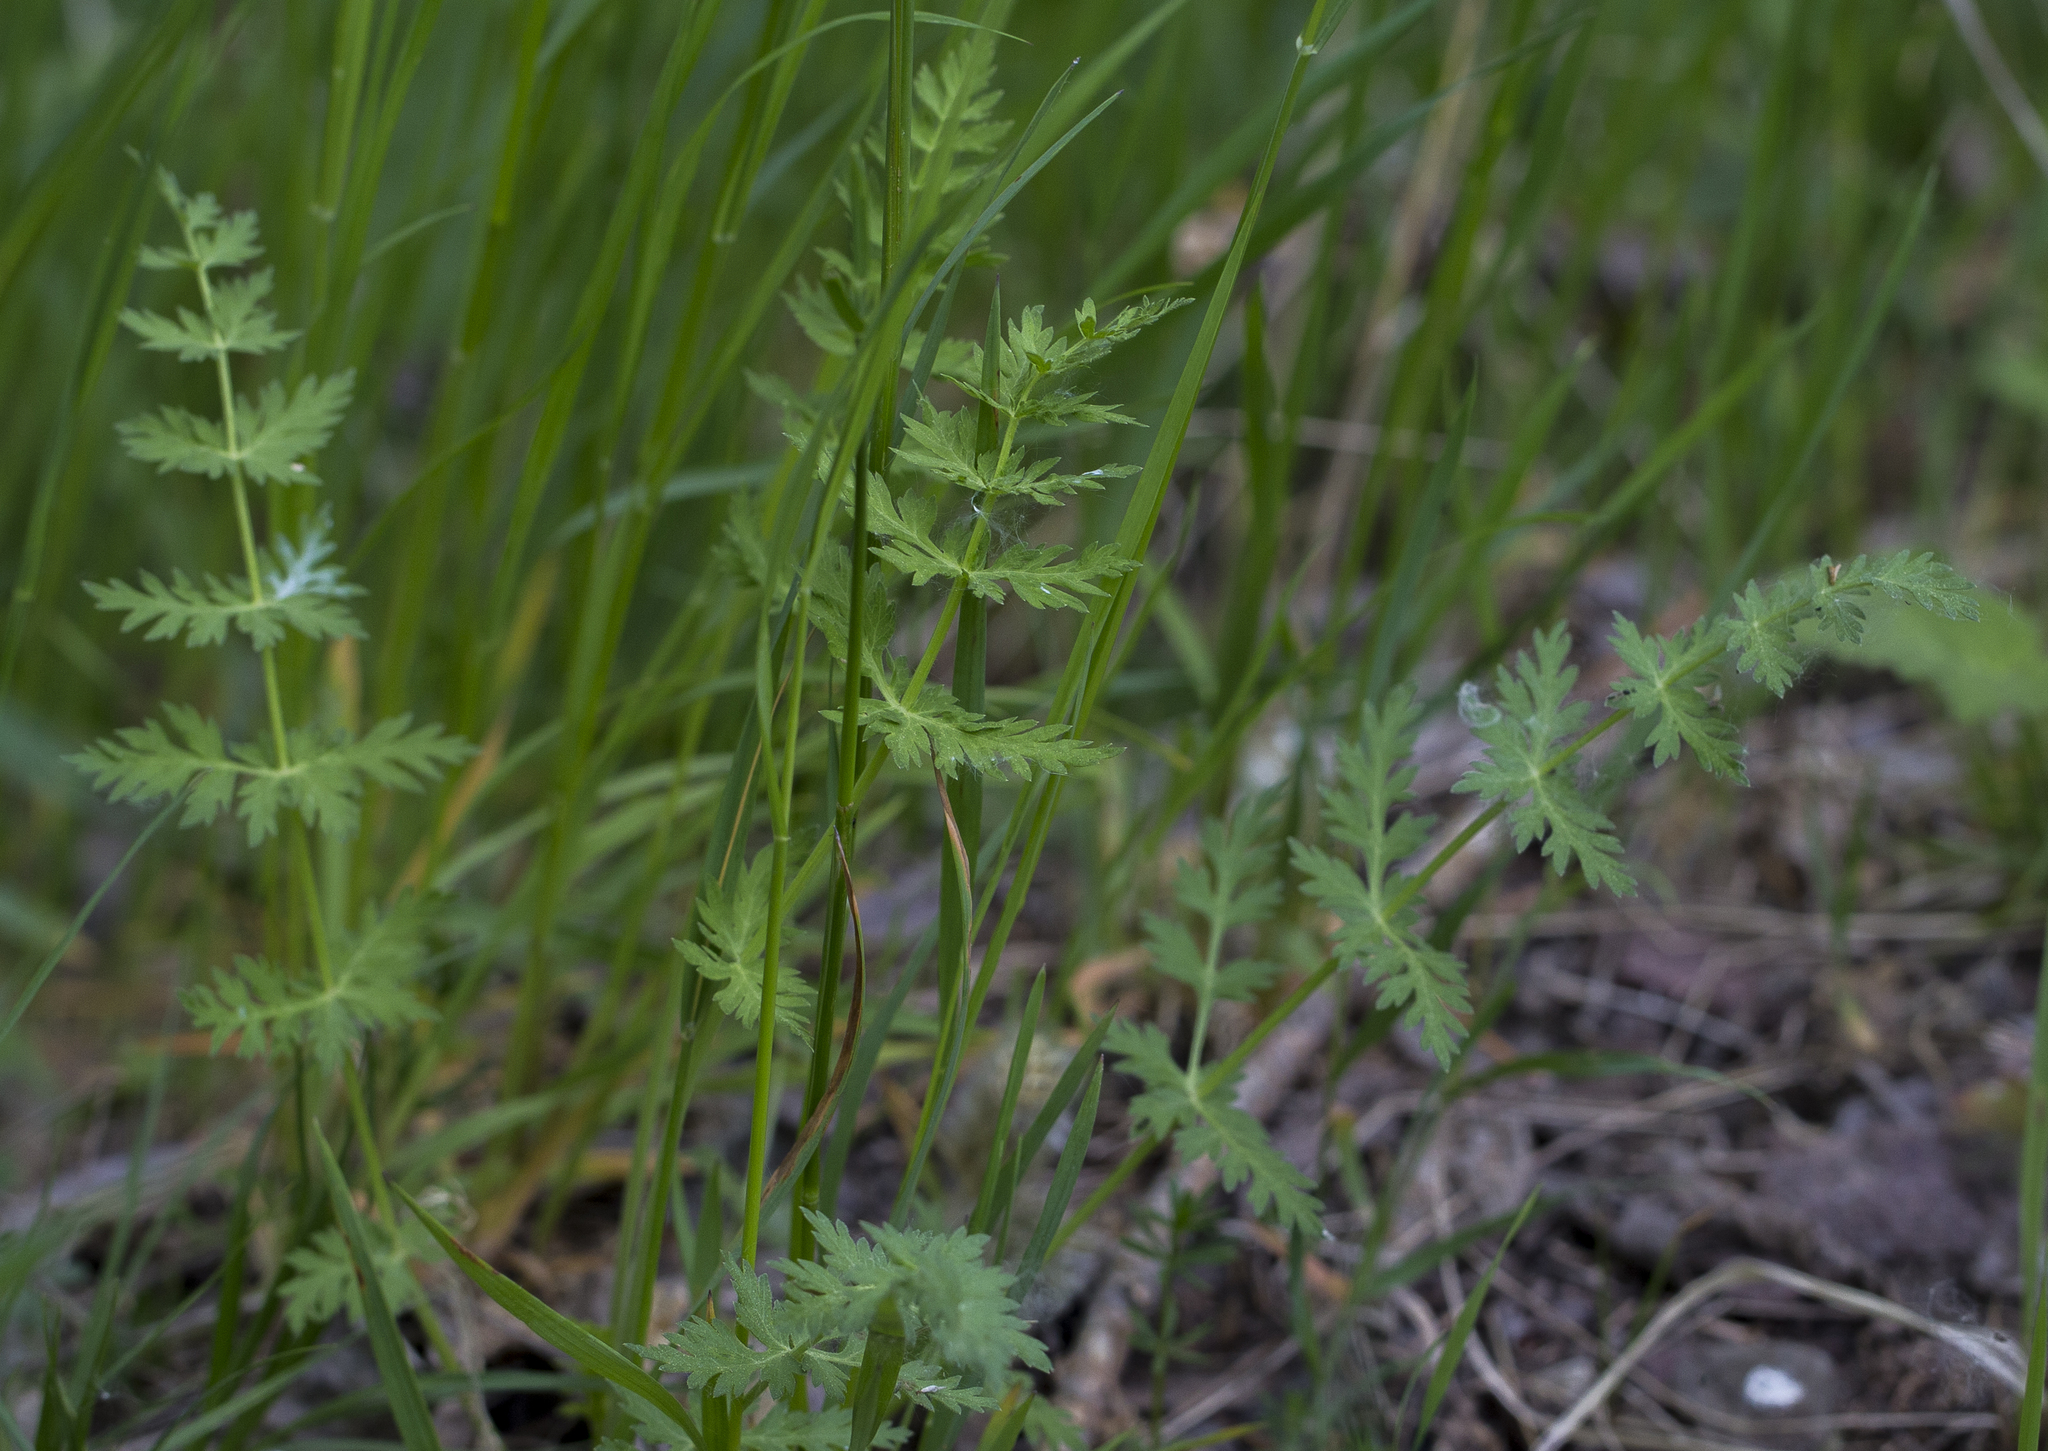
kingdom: Plantae
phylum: Tracheophyta
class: Magnoliopsida
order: Apiales
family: Apiaceae
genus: Seseli
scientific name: Seseli libanotis
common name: Mooncarrot
